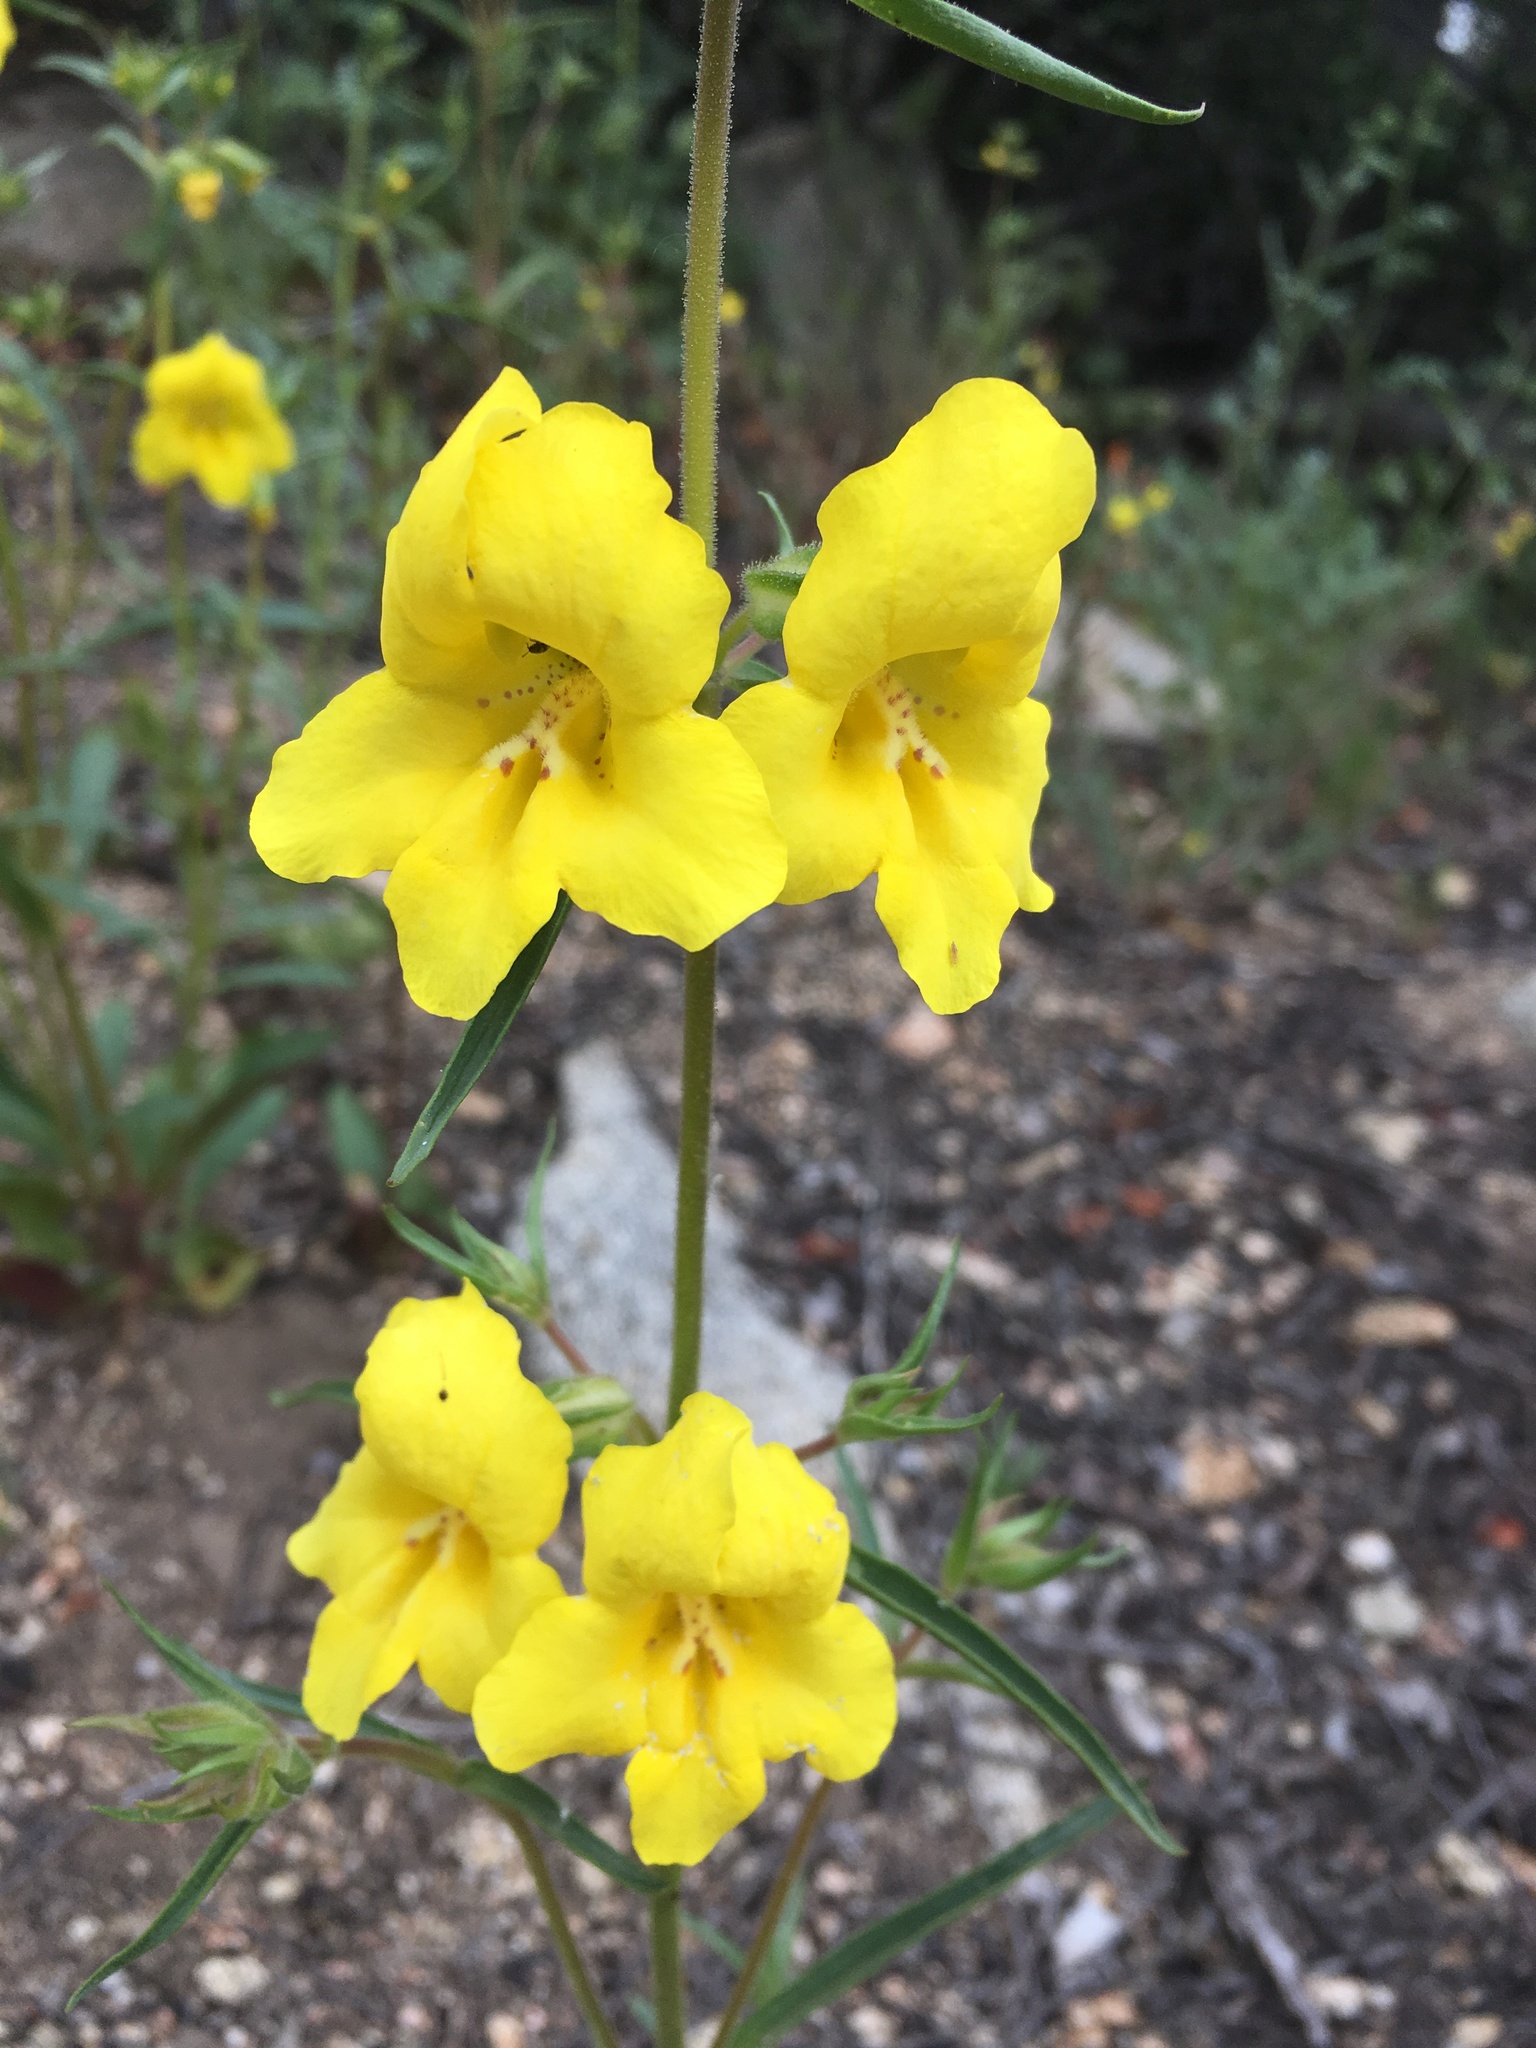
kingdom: Plantae
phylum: Tracheophyta
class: Magnoliopsida
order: Lamiales
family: Phrymaceae
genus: Diplacus
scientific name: Diplacus brevipes
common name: Wide-throat yellow monkey-flower
